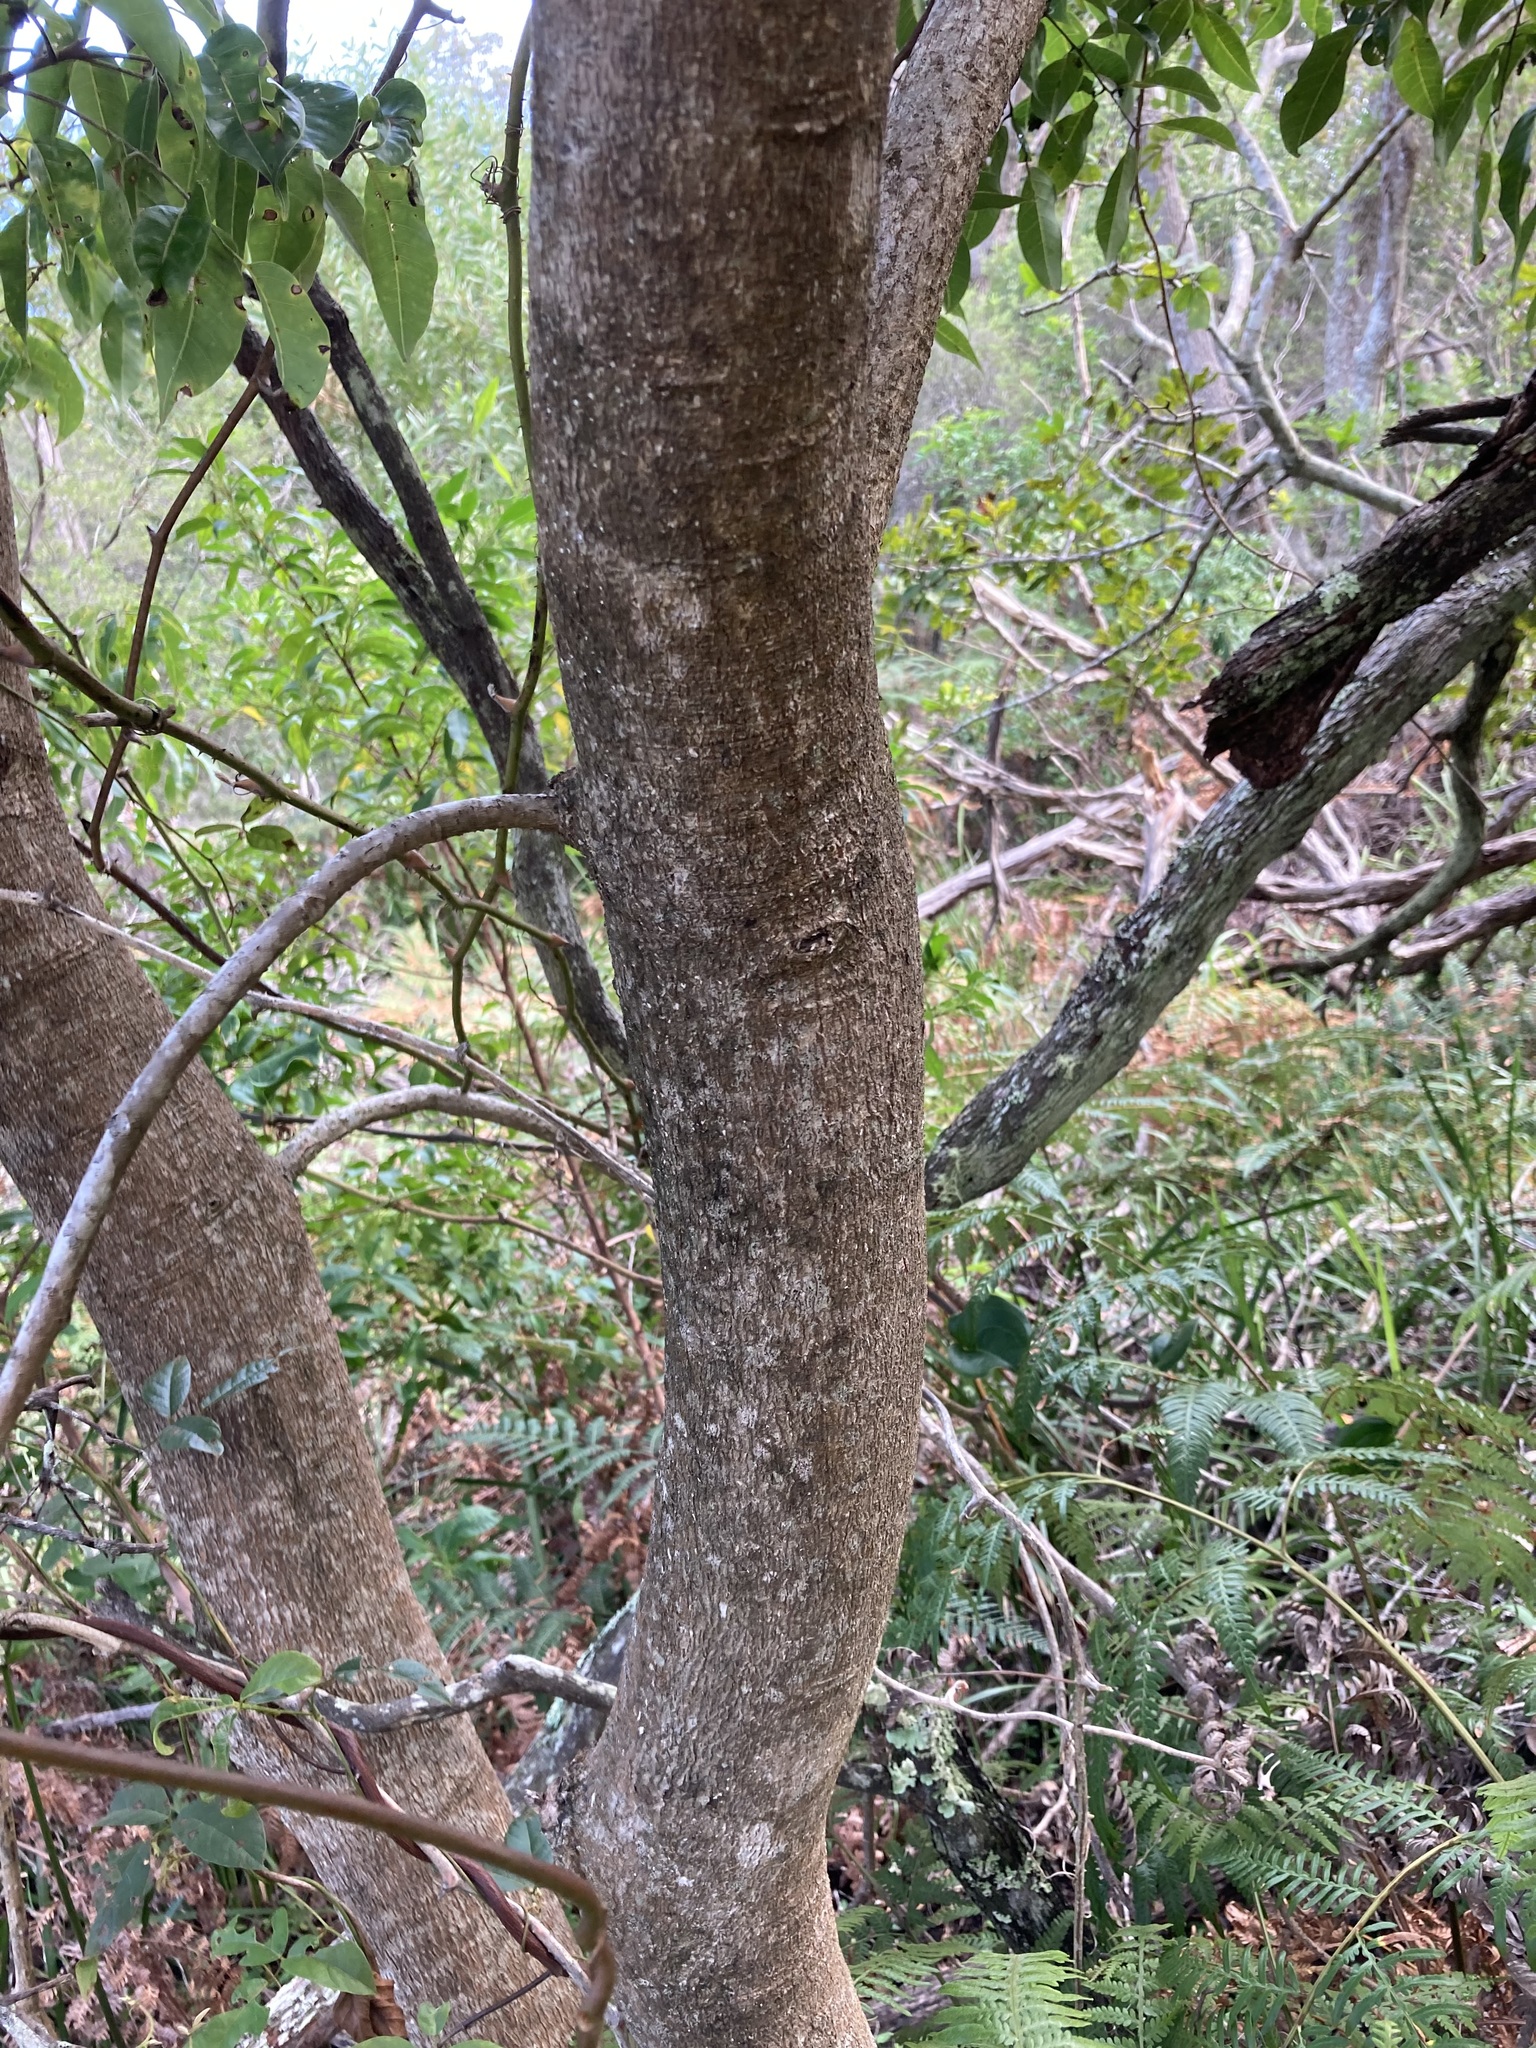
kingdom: Plantae
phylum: Tracheophyta
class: Magnoliopsida
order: Sapindales
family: Anacardiaceae
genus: Euroschinus
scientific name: Euroschinus falcatus
